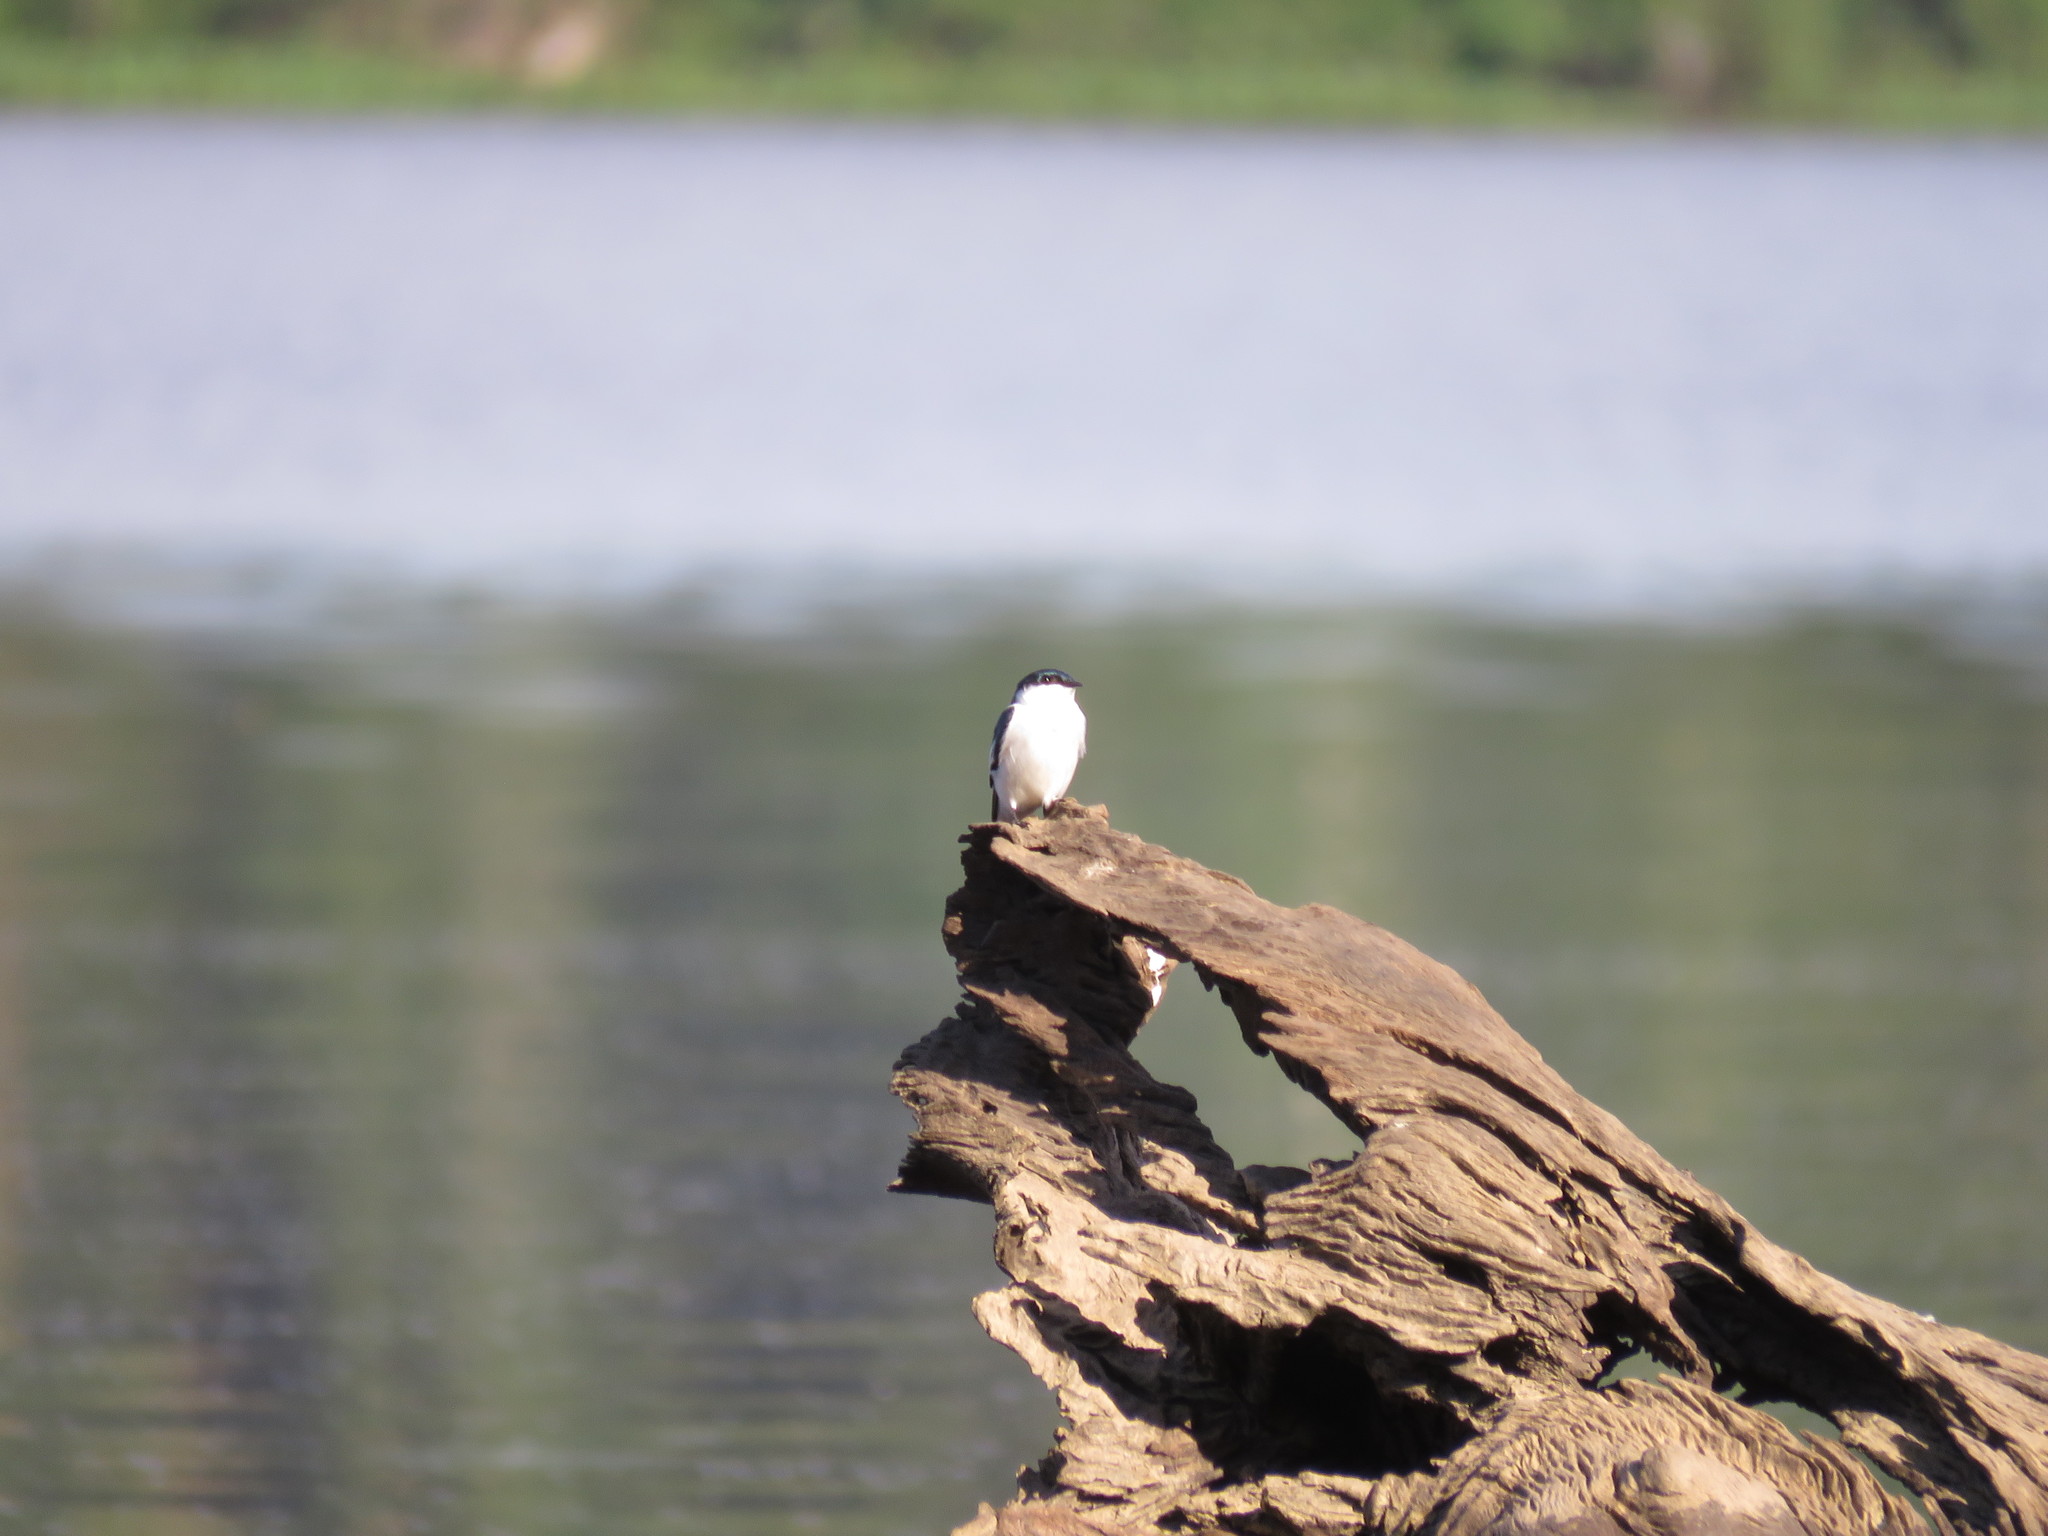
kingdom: Animalia
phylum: Chordata
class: Aves
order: Passeriformes
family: Hirundinidae
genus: Tachycineta
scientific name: Tachycineta albiventer
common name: White-winged swallow
